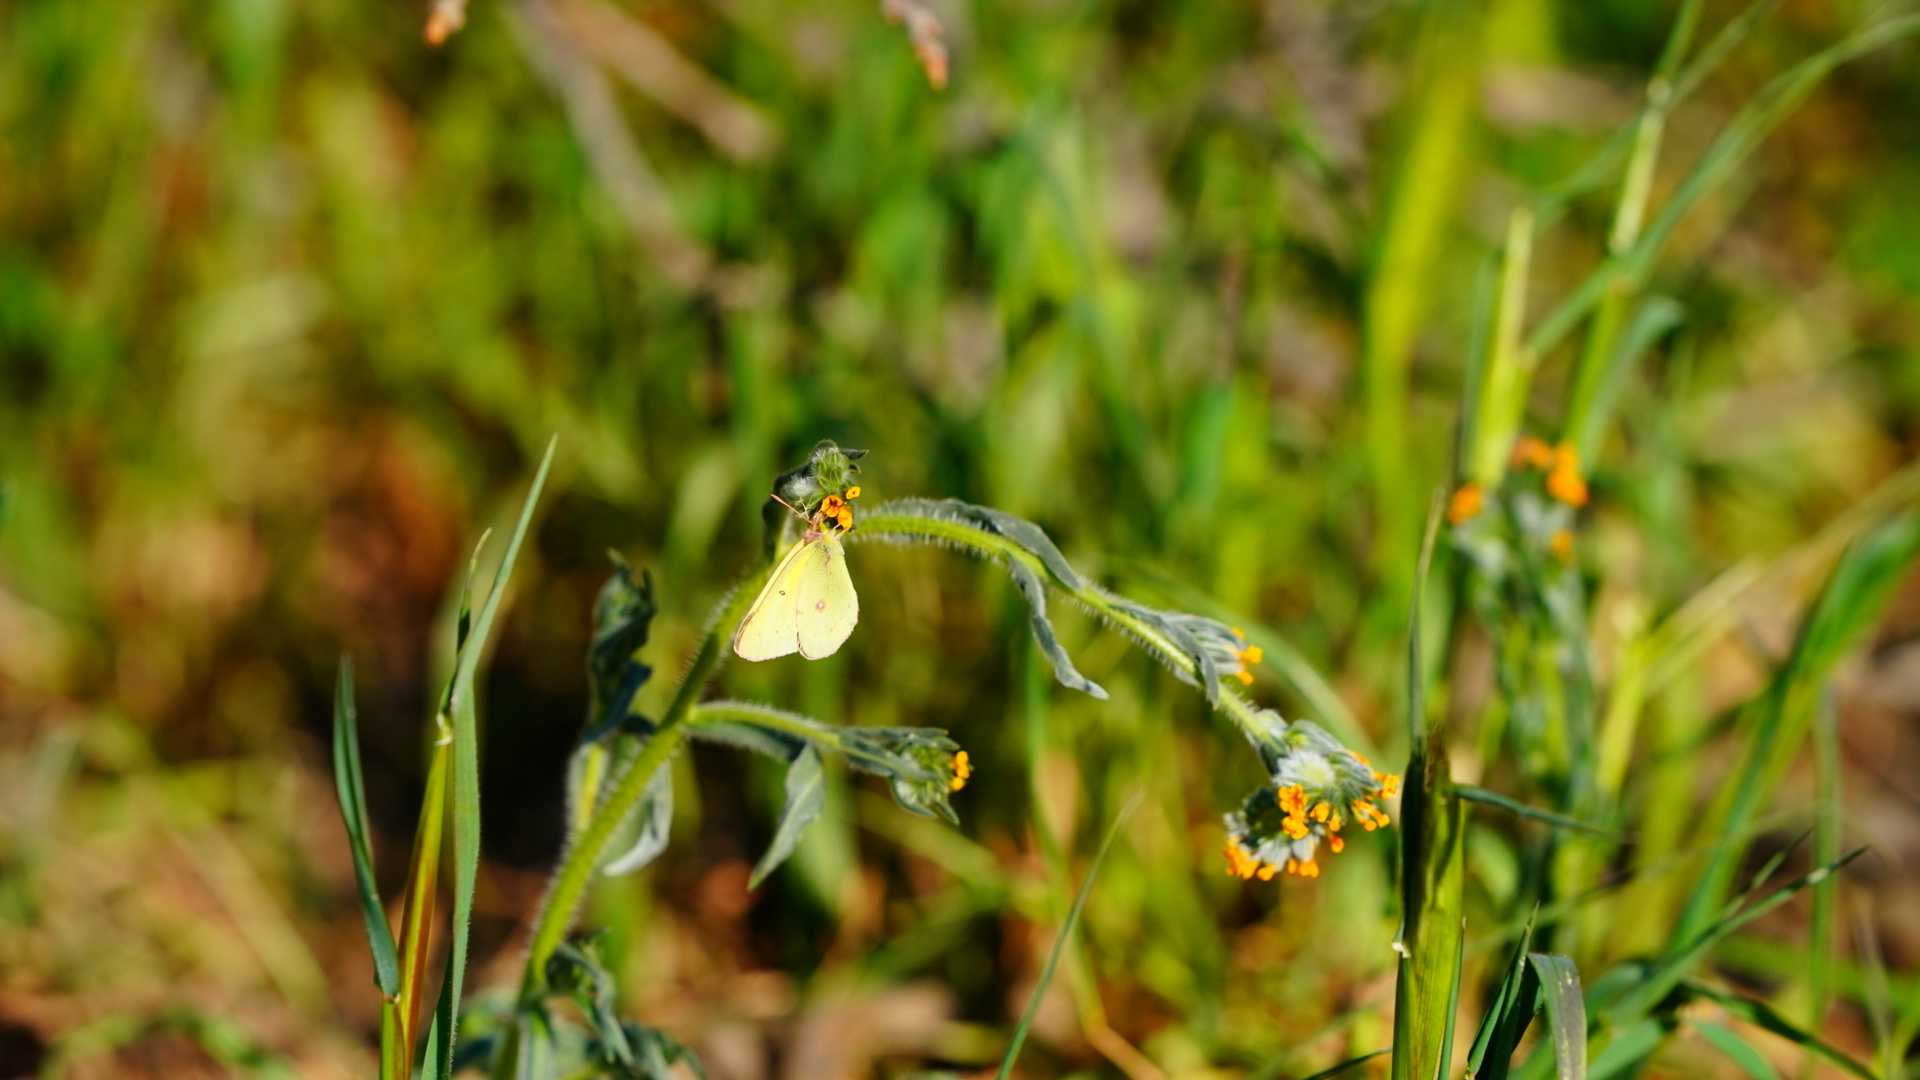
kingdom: Animalia
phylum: Arthropoda
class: Insecta
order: Lepidoptera
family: Pieridae
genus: Colias
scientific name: Colias eurytheme
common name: Alfalfa butterfly
